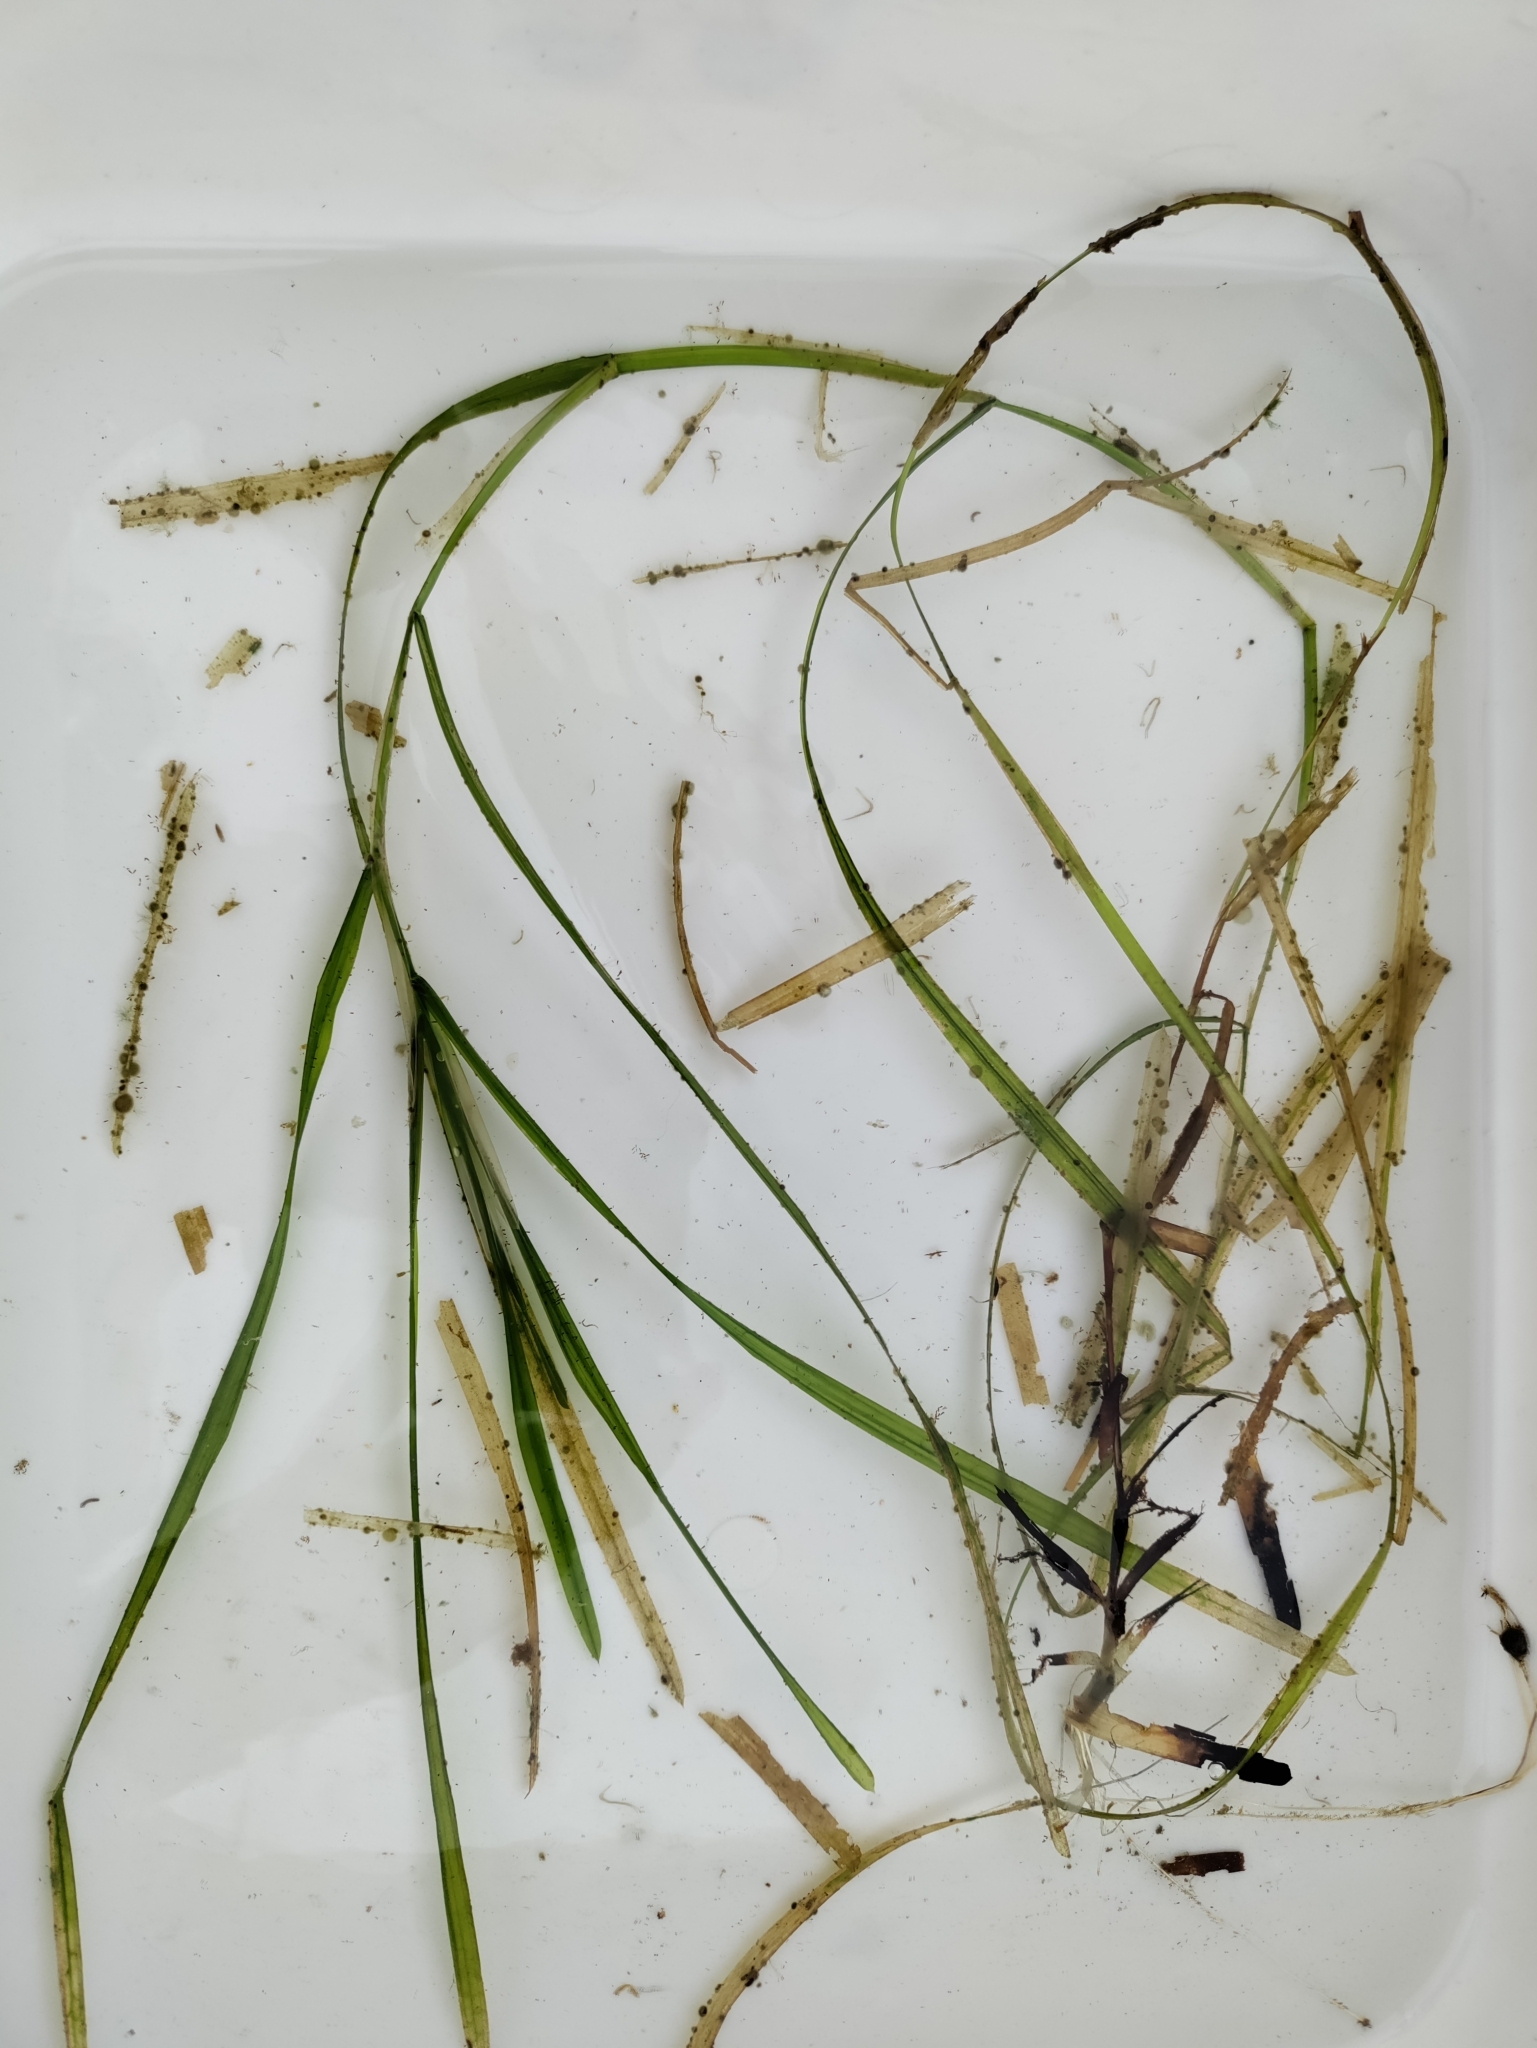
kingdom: Plantae
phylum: Tracheophyta
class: Liliopsida
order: Alismatales
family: Potamogetonaceae
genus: Potamogeton
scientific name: Potamogeton zosteriformis
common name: Eelgrass pondweed
